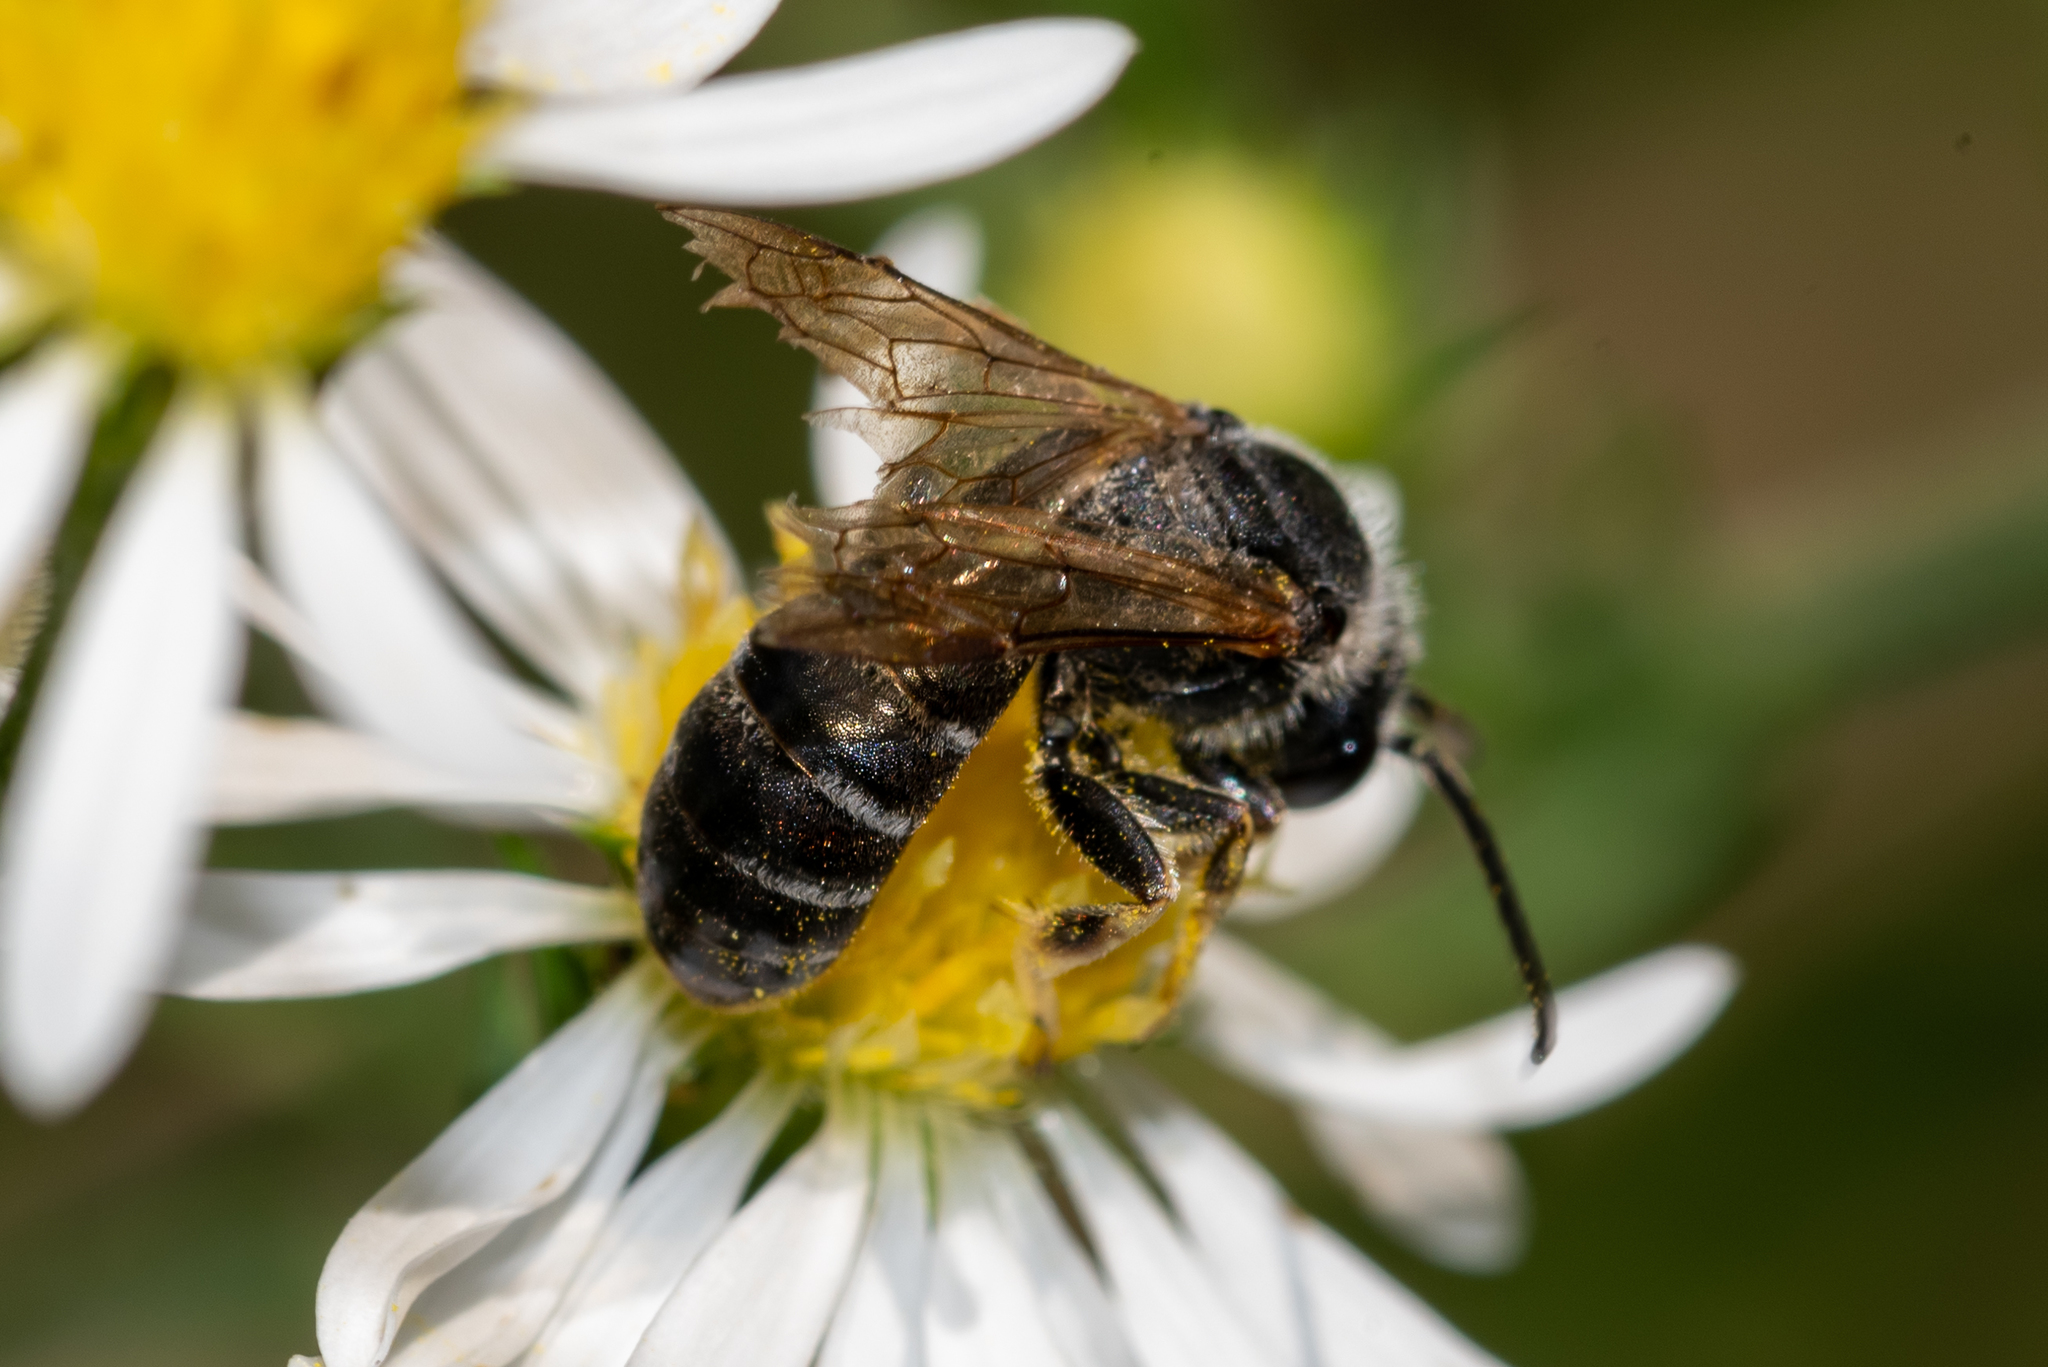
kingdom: Animalia
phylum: Arthropoda
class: Insecta
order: Hymenoptera
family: Halictidae
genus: Halictus
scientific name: Halictus rubicundus
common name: Orange-legged furrow bee
